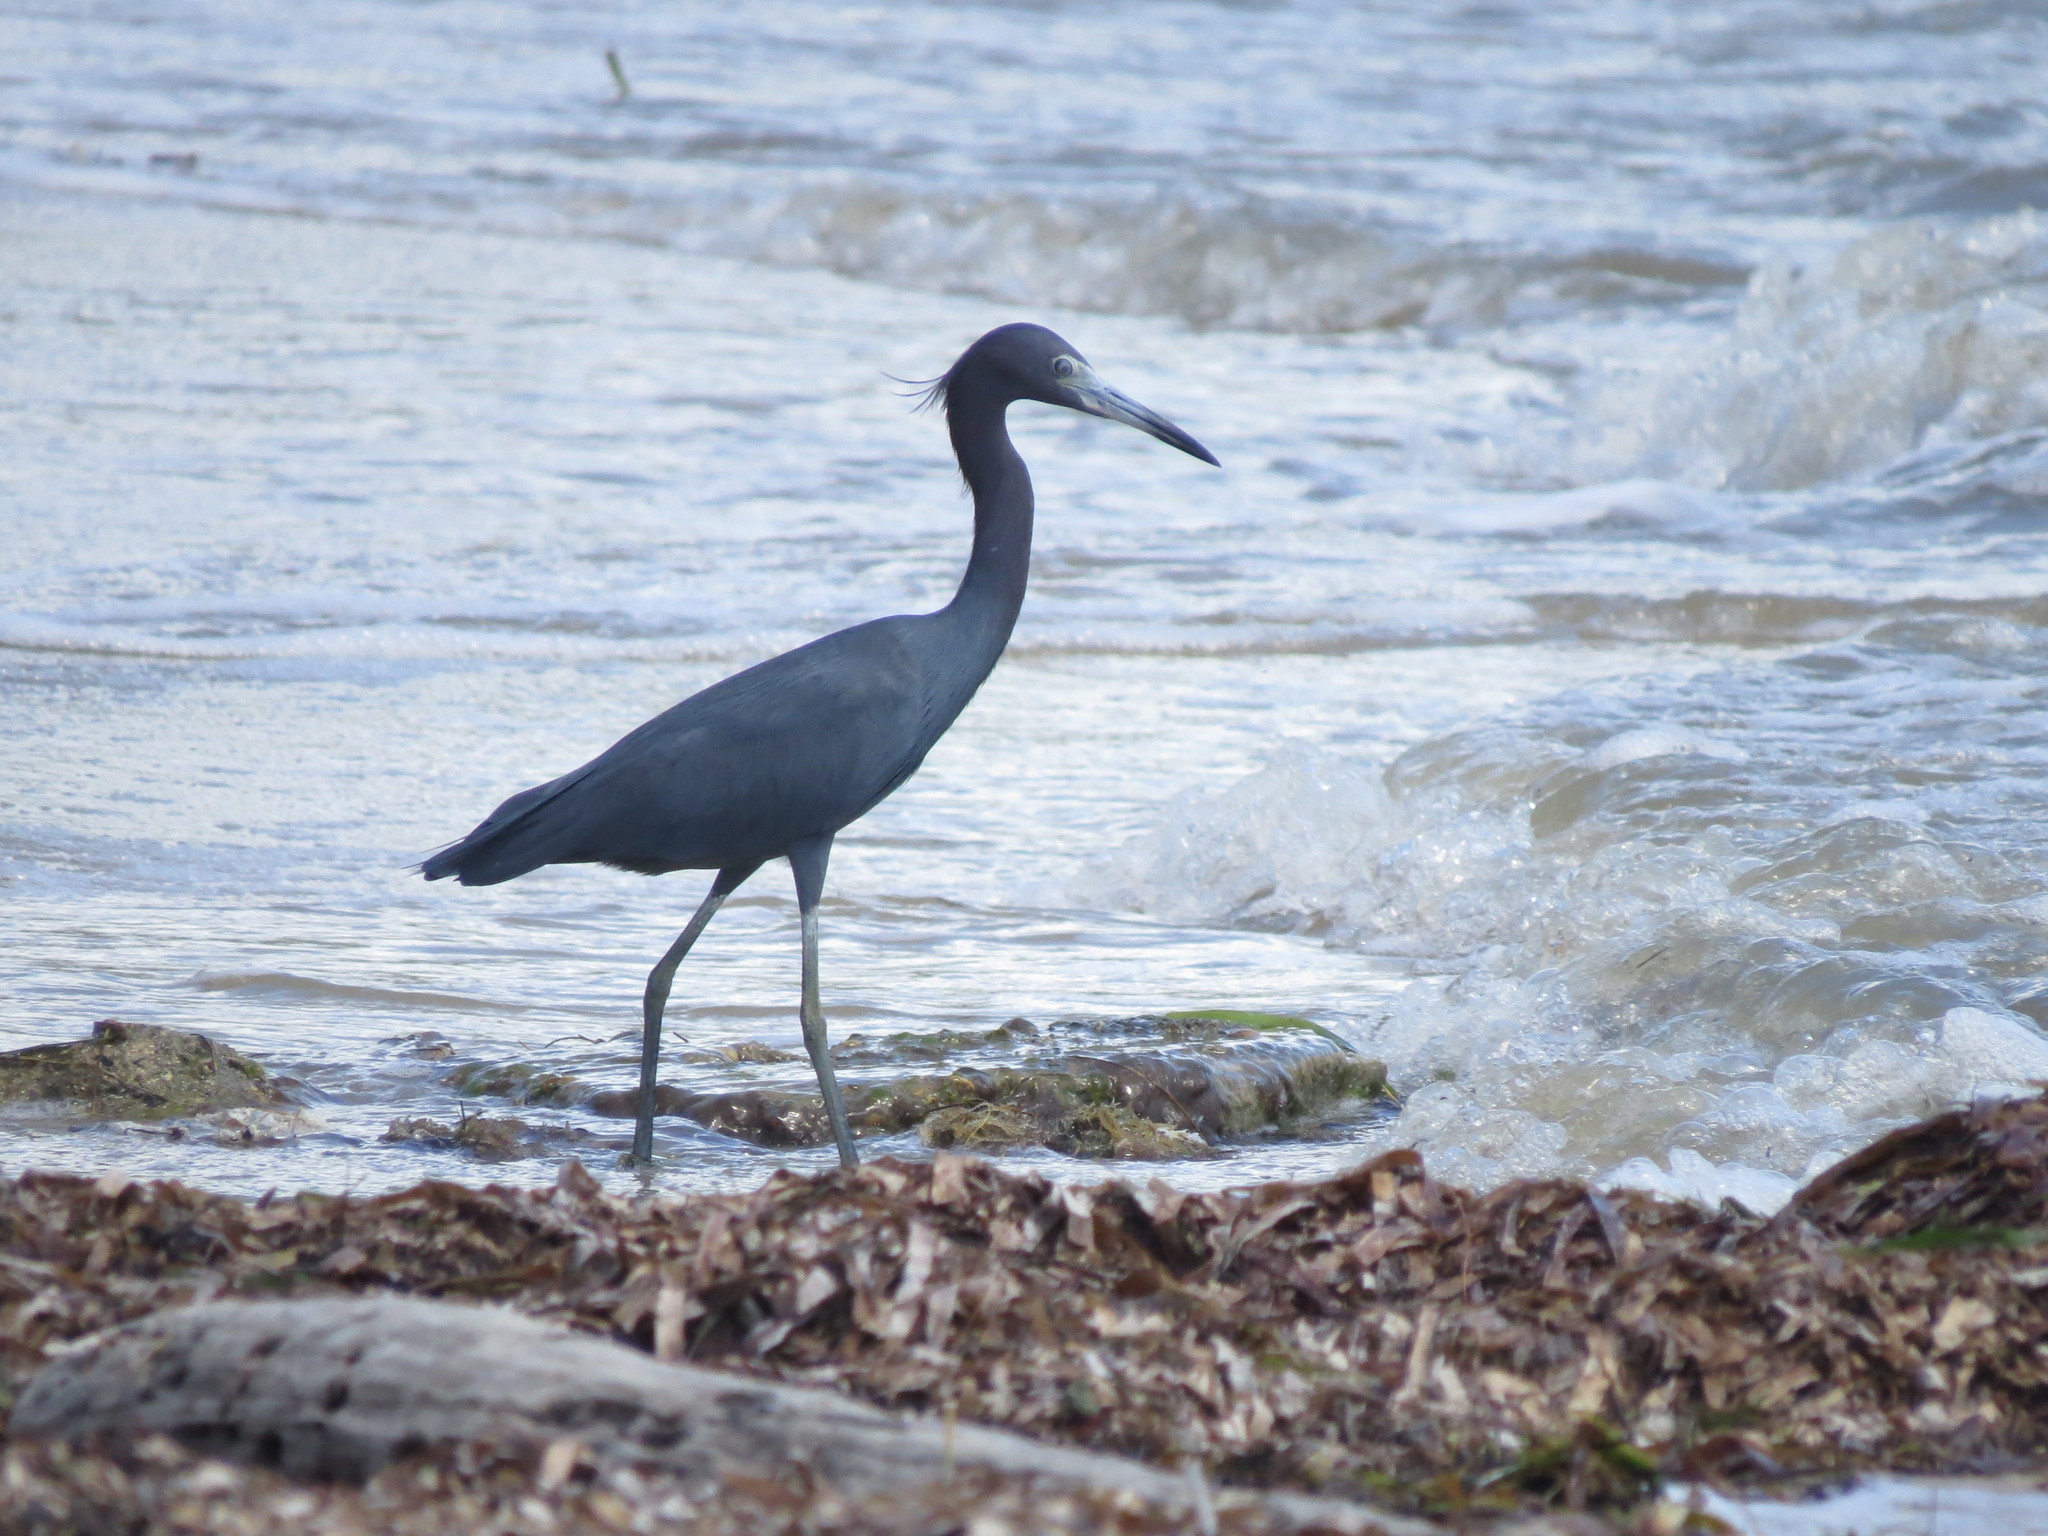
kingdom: Animalia
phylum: Chordata
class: Aves
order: Pelecaniformes
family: Ardeidae
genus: Egretta
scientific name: Egretta caerulea
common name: Little blue heron
